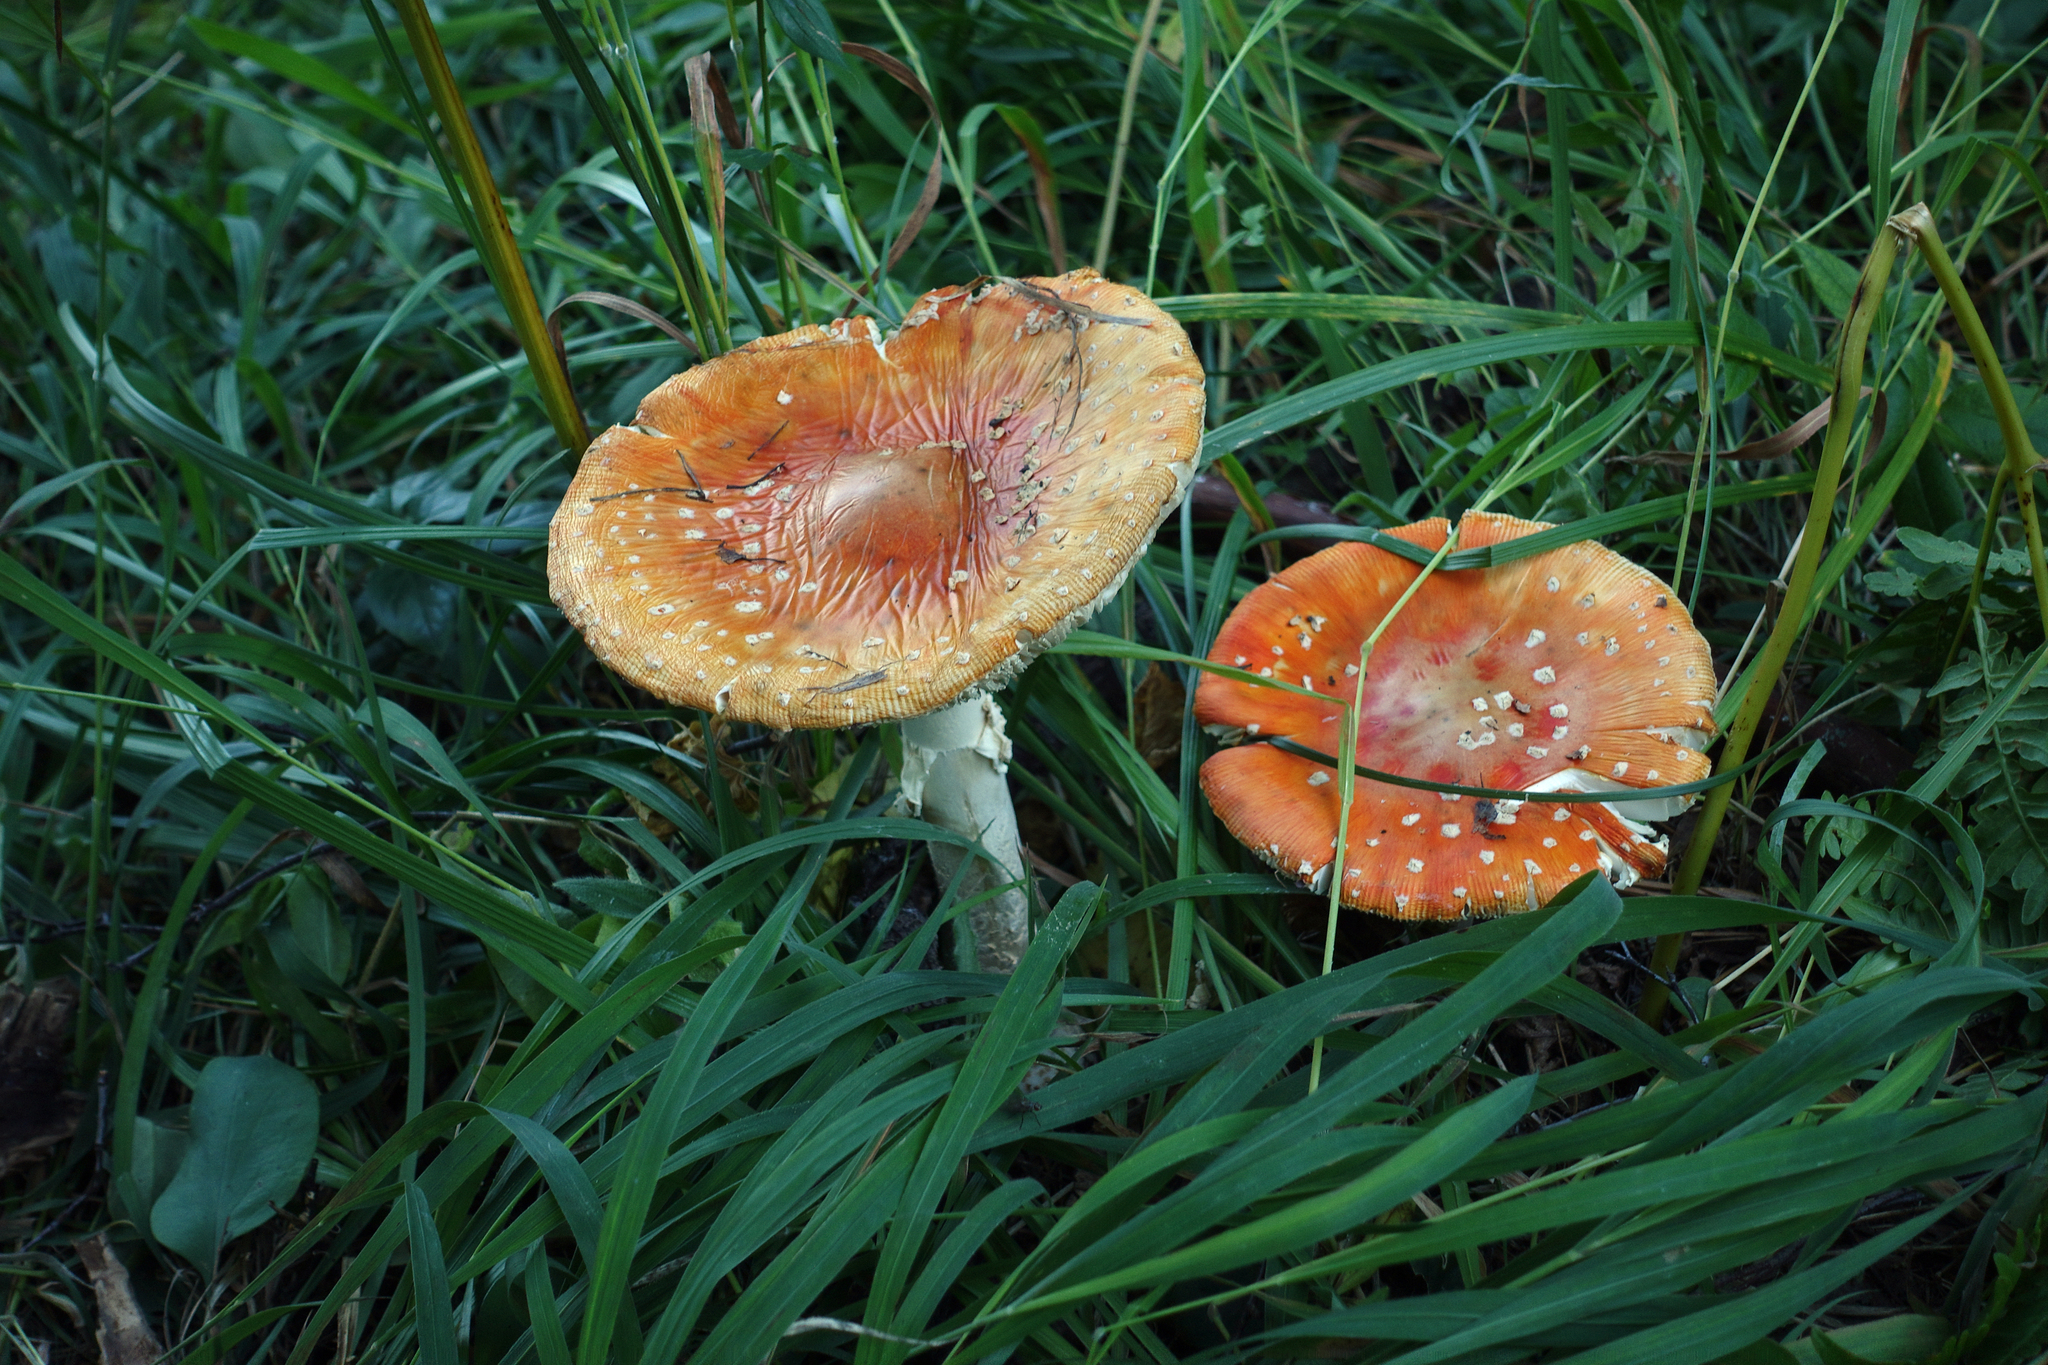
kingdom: Fungi
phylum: Basidiomycota
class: Agaricomycetes
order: Agaricales
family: Amanitaceae
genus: Amanita
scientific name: Amanita muscaria
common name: Fly agaric
